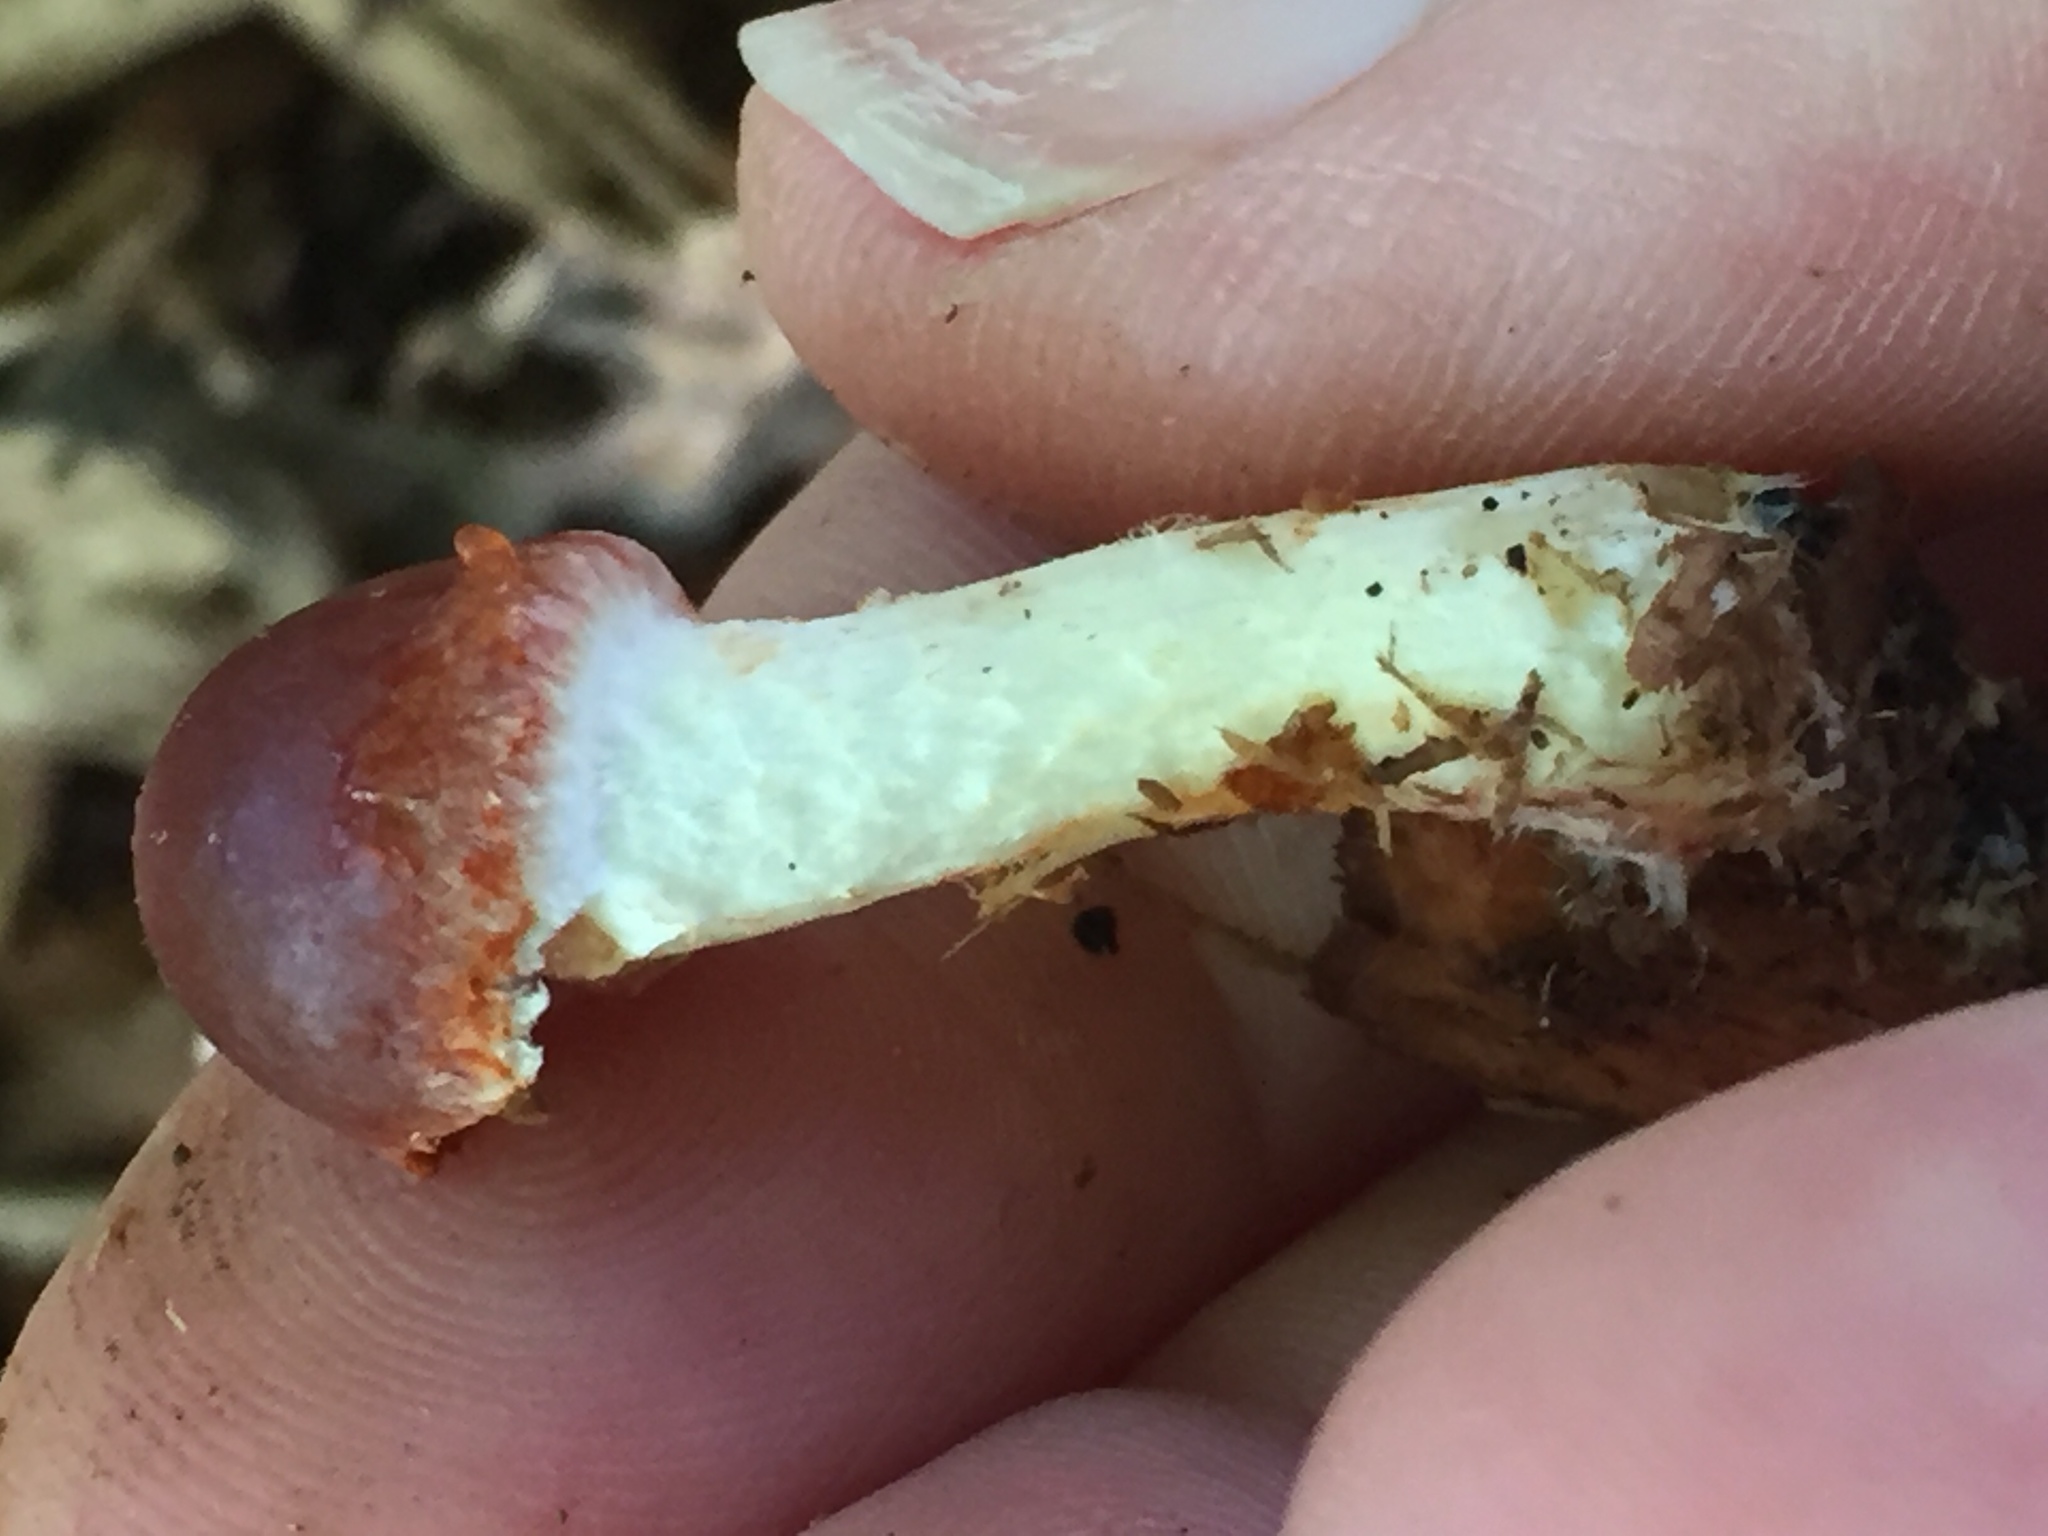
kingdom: Fungi
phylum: Basidiomycota
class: Agaricomycetes
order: Agaricales
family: Strophariaceae
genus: Leratiomyces
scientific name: Leratiomyces ceres
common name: Redlead roundhead
